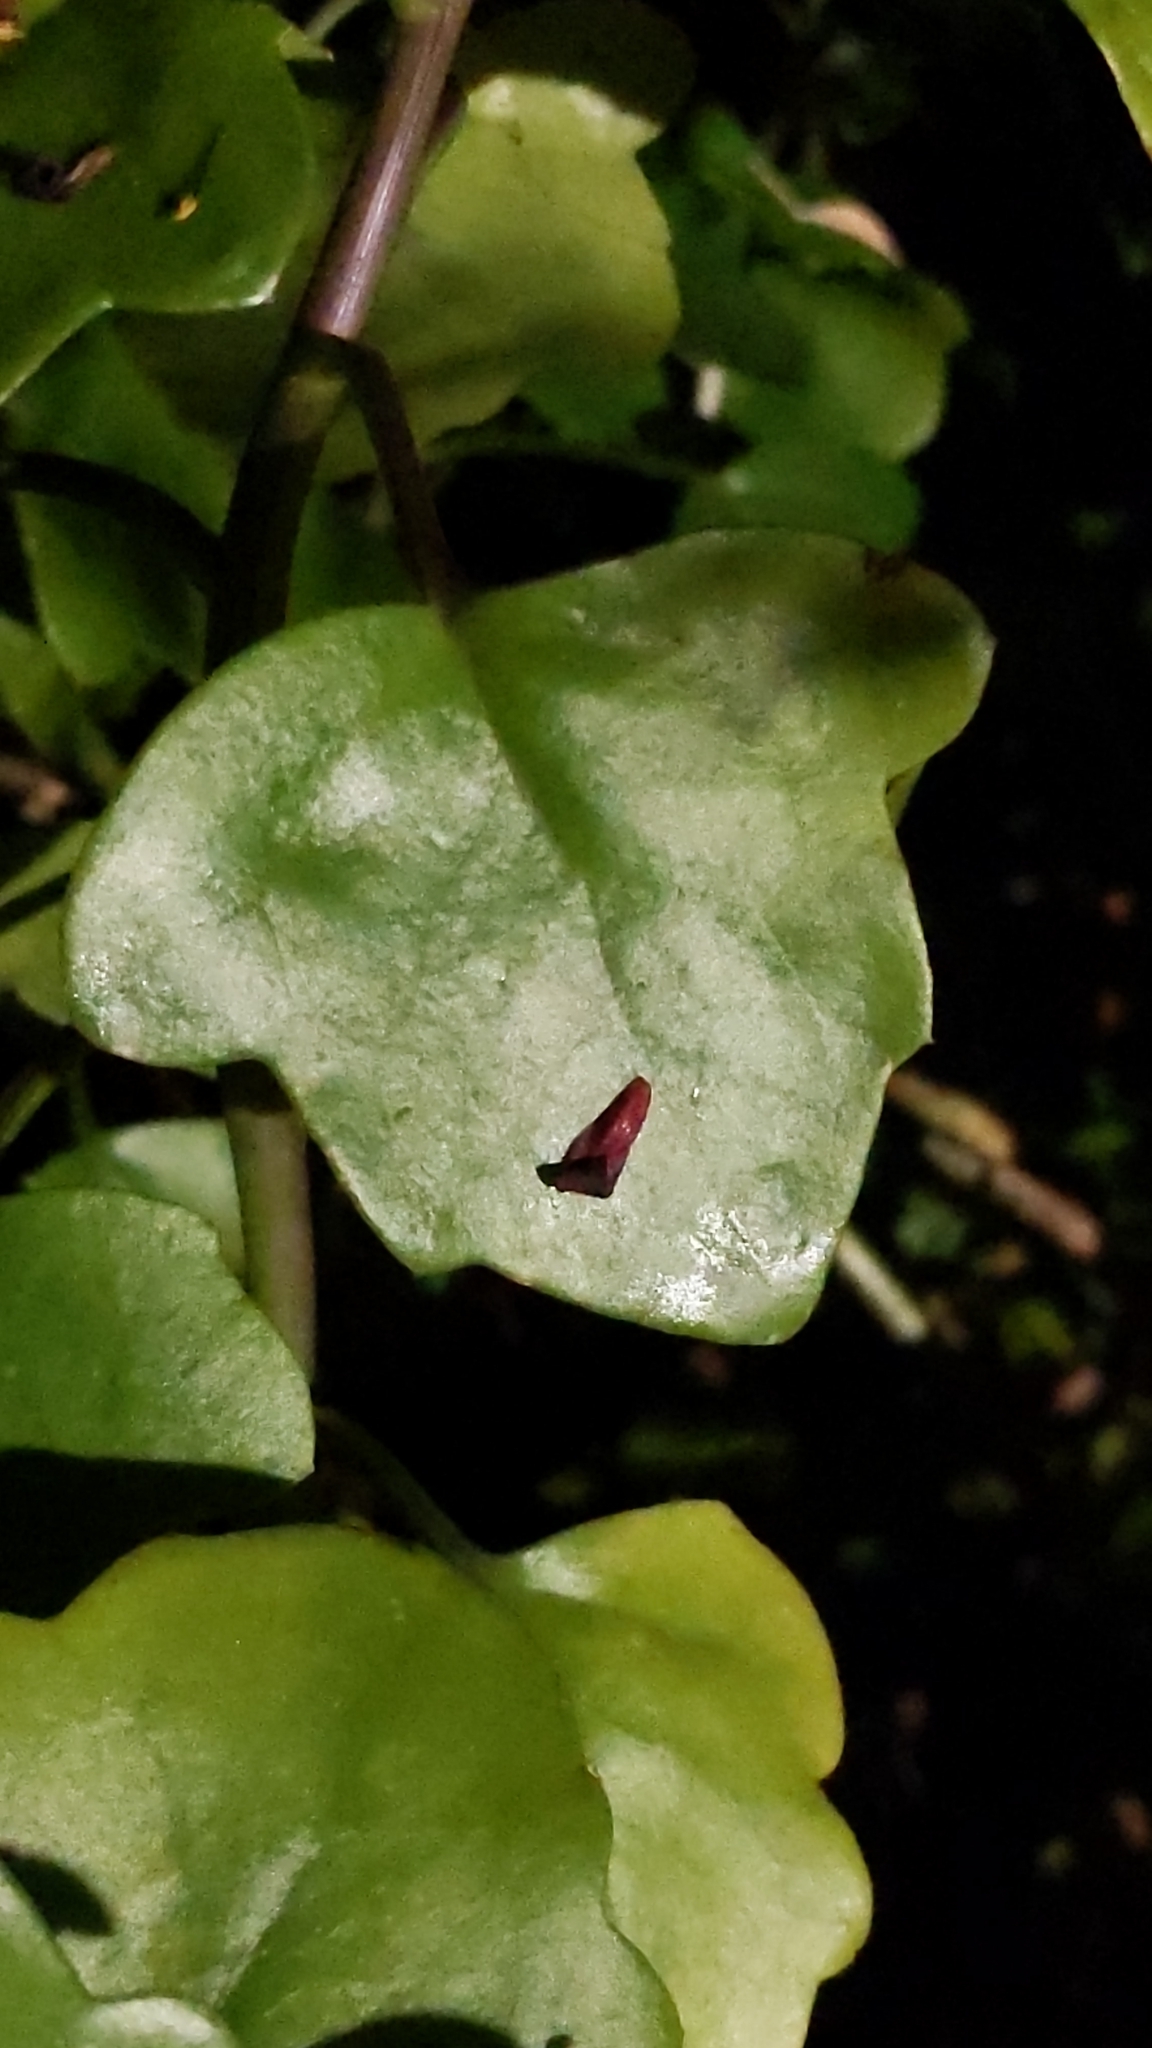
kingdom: Plantae
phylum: Tracheophyta
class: Magnoliopsida
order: Asterales
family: Asteraceae
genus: Senecio
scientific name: Senecio angulatus
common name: Climbing groundsel
